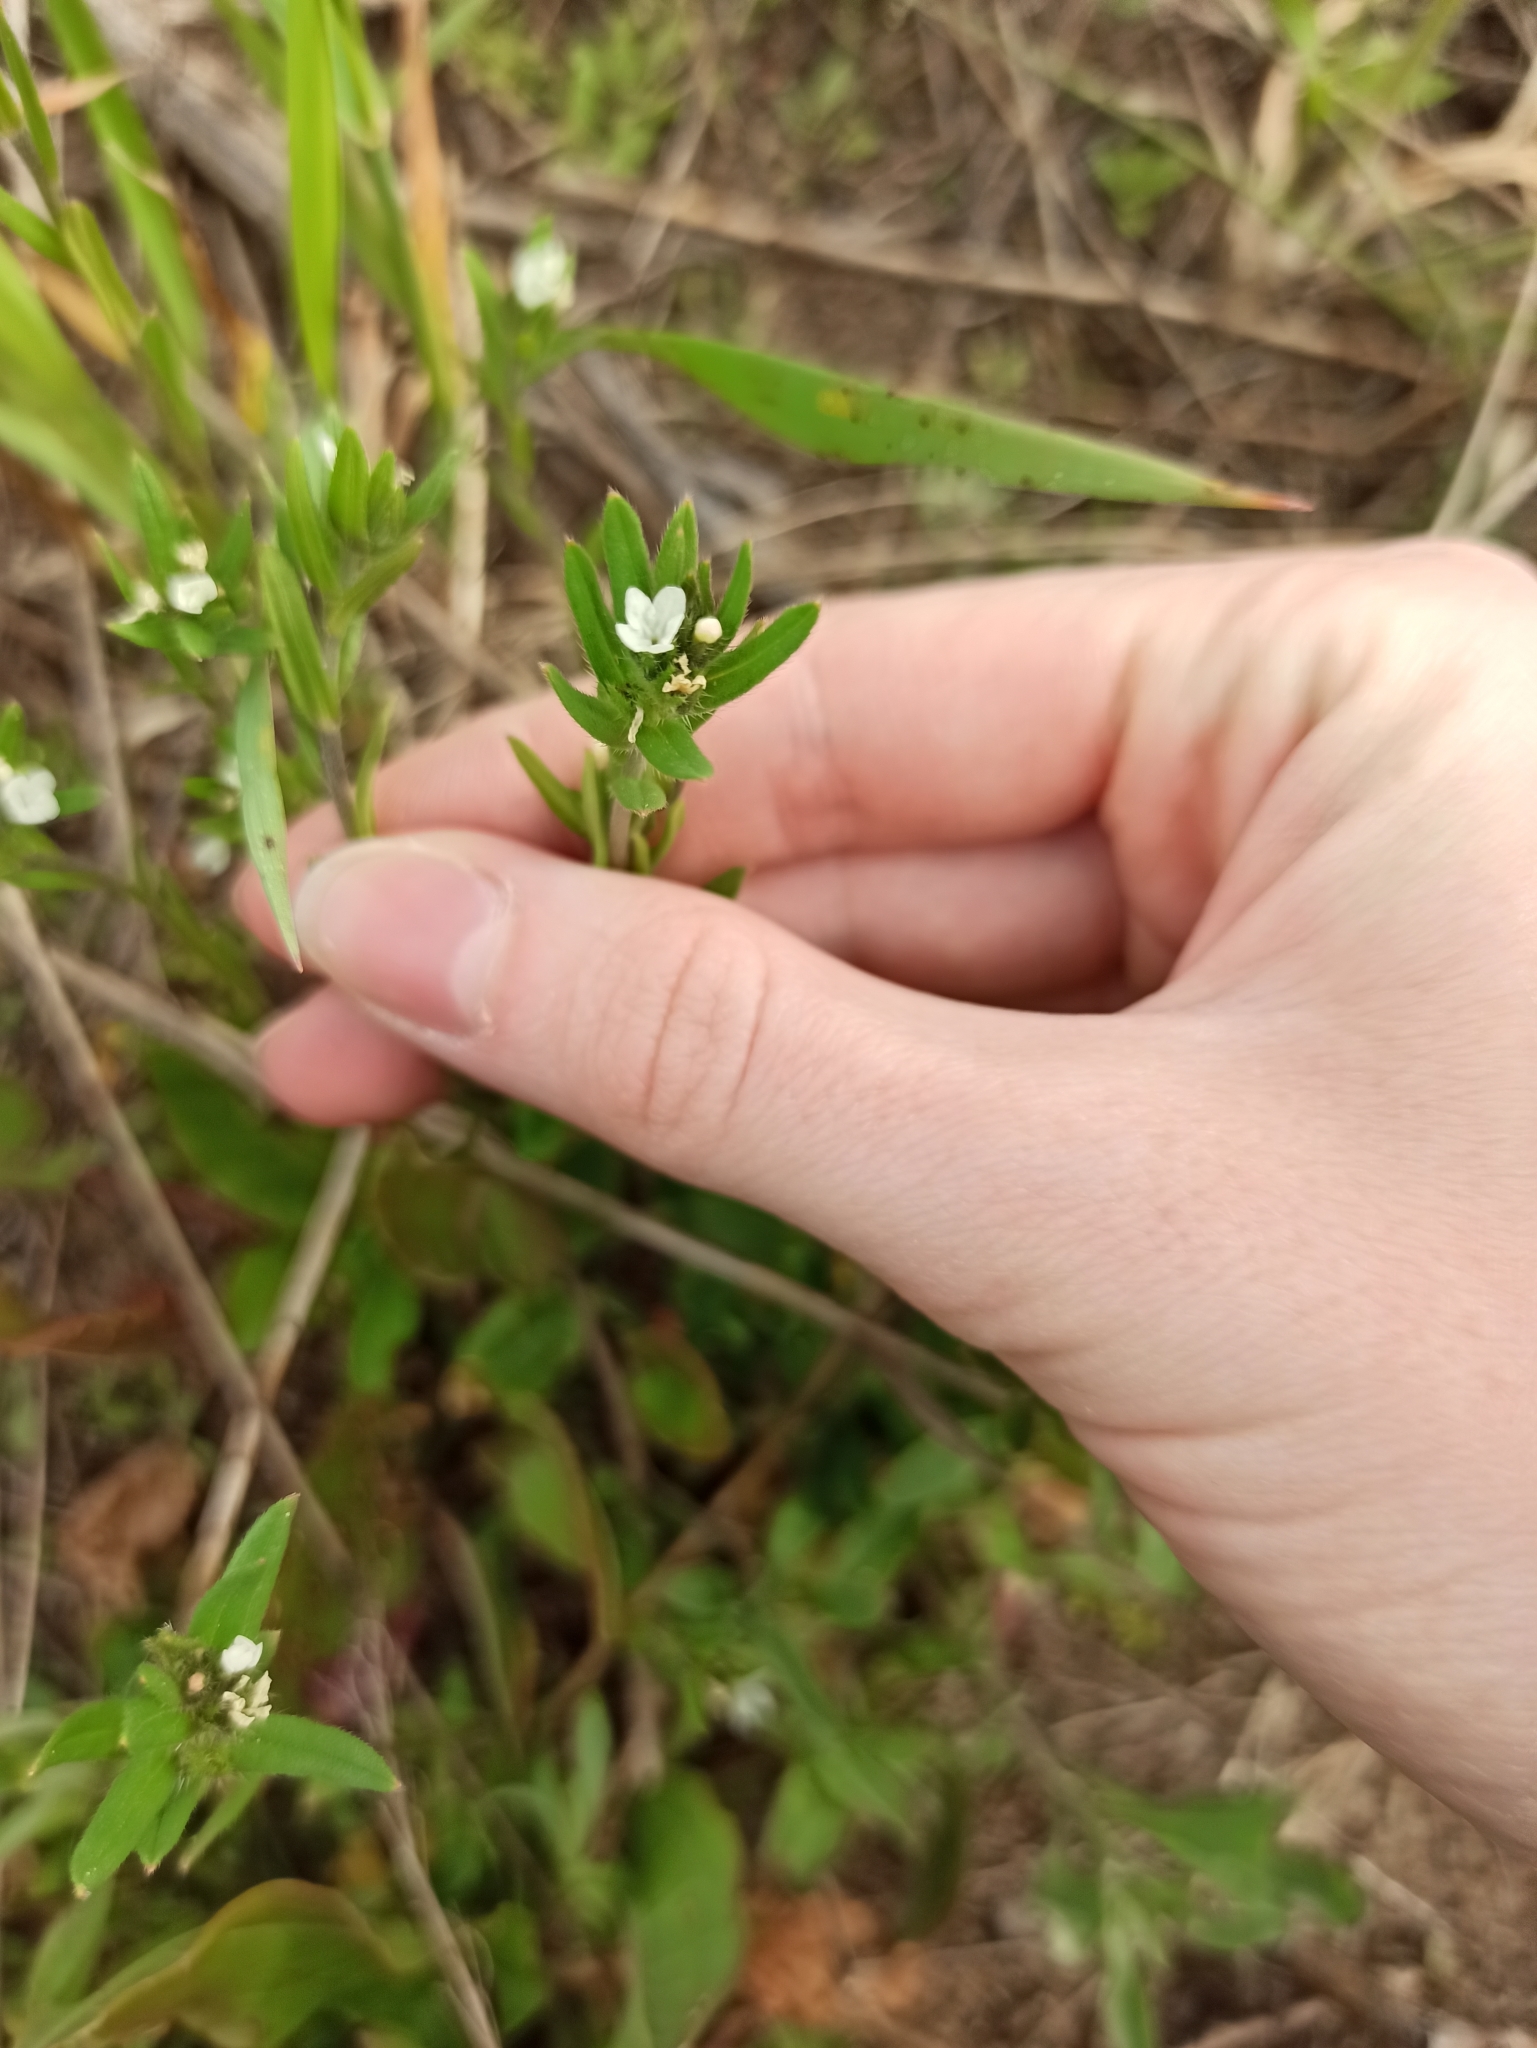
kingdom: Plantae
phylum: Tracheophyta
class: Magnoliopsida
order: Boraginales
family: Boraginaceae
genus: Buglossoides
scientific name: Buglossoides arvensis
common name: Corn gromwell
